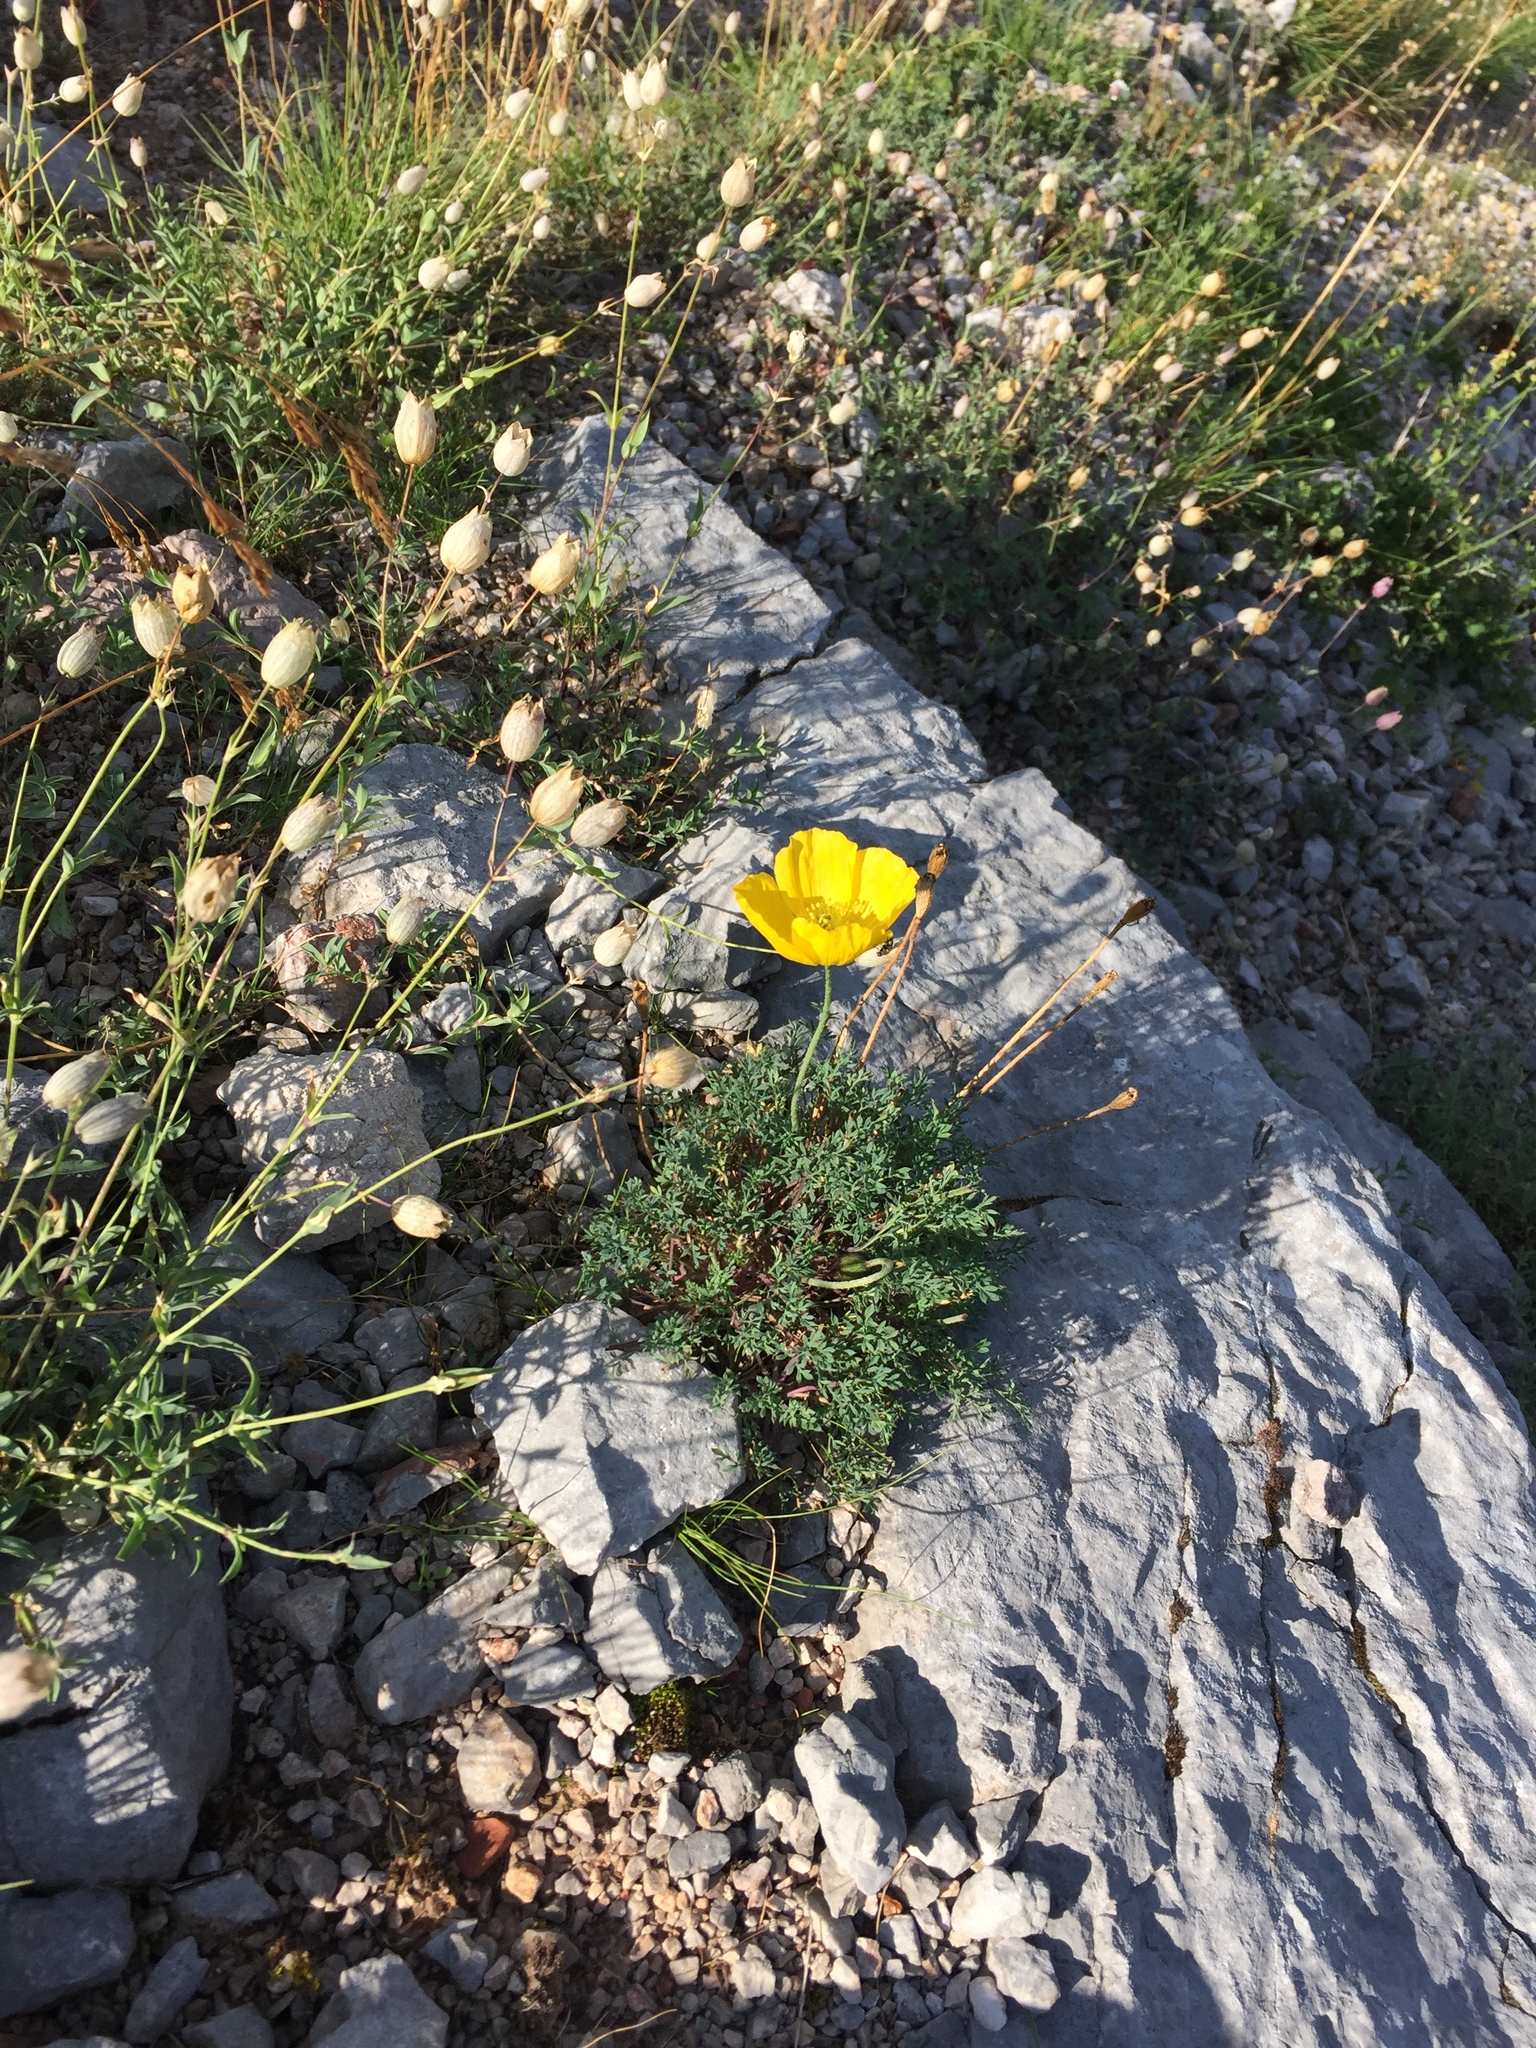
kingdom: Plantae
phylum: Tracheophyta
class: Magnoliopsida
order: Ranunculales
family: Papaveraceae
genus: Papaver
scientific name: Papaver alpinum
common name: Austrian poppy
